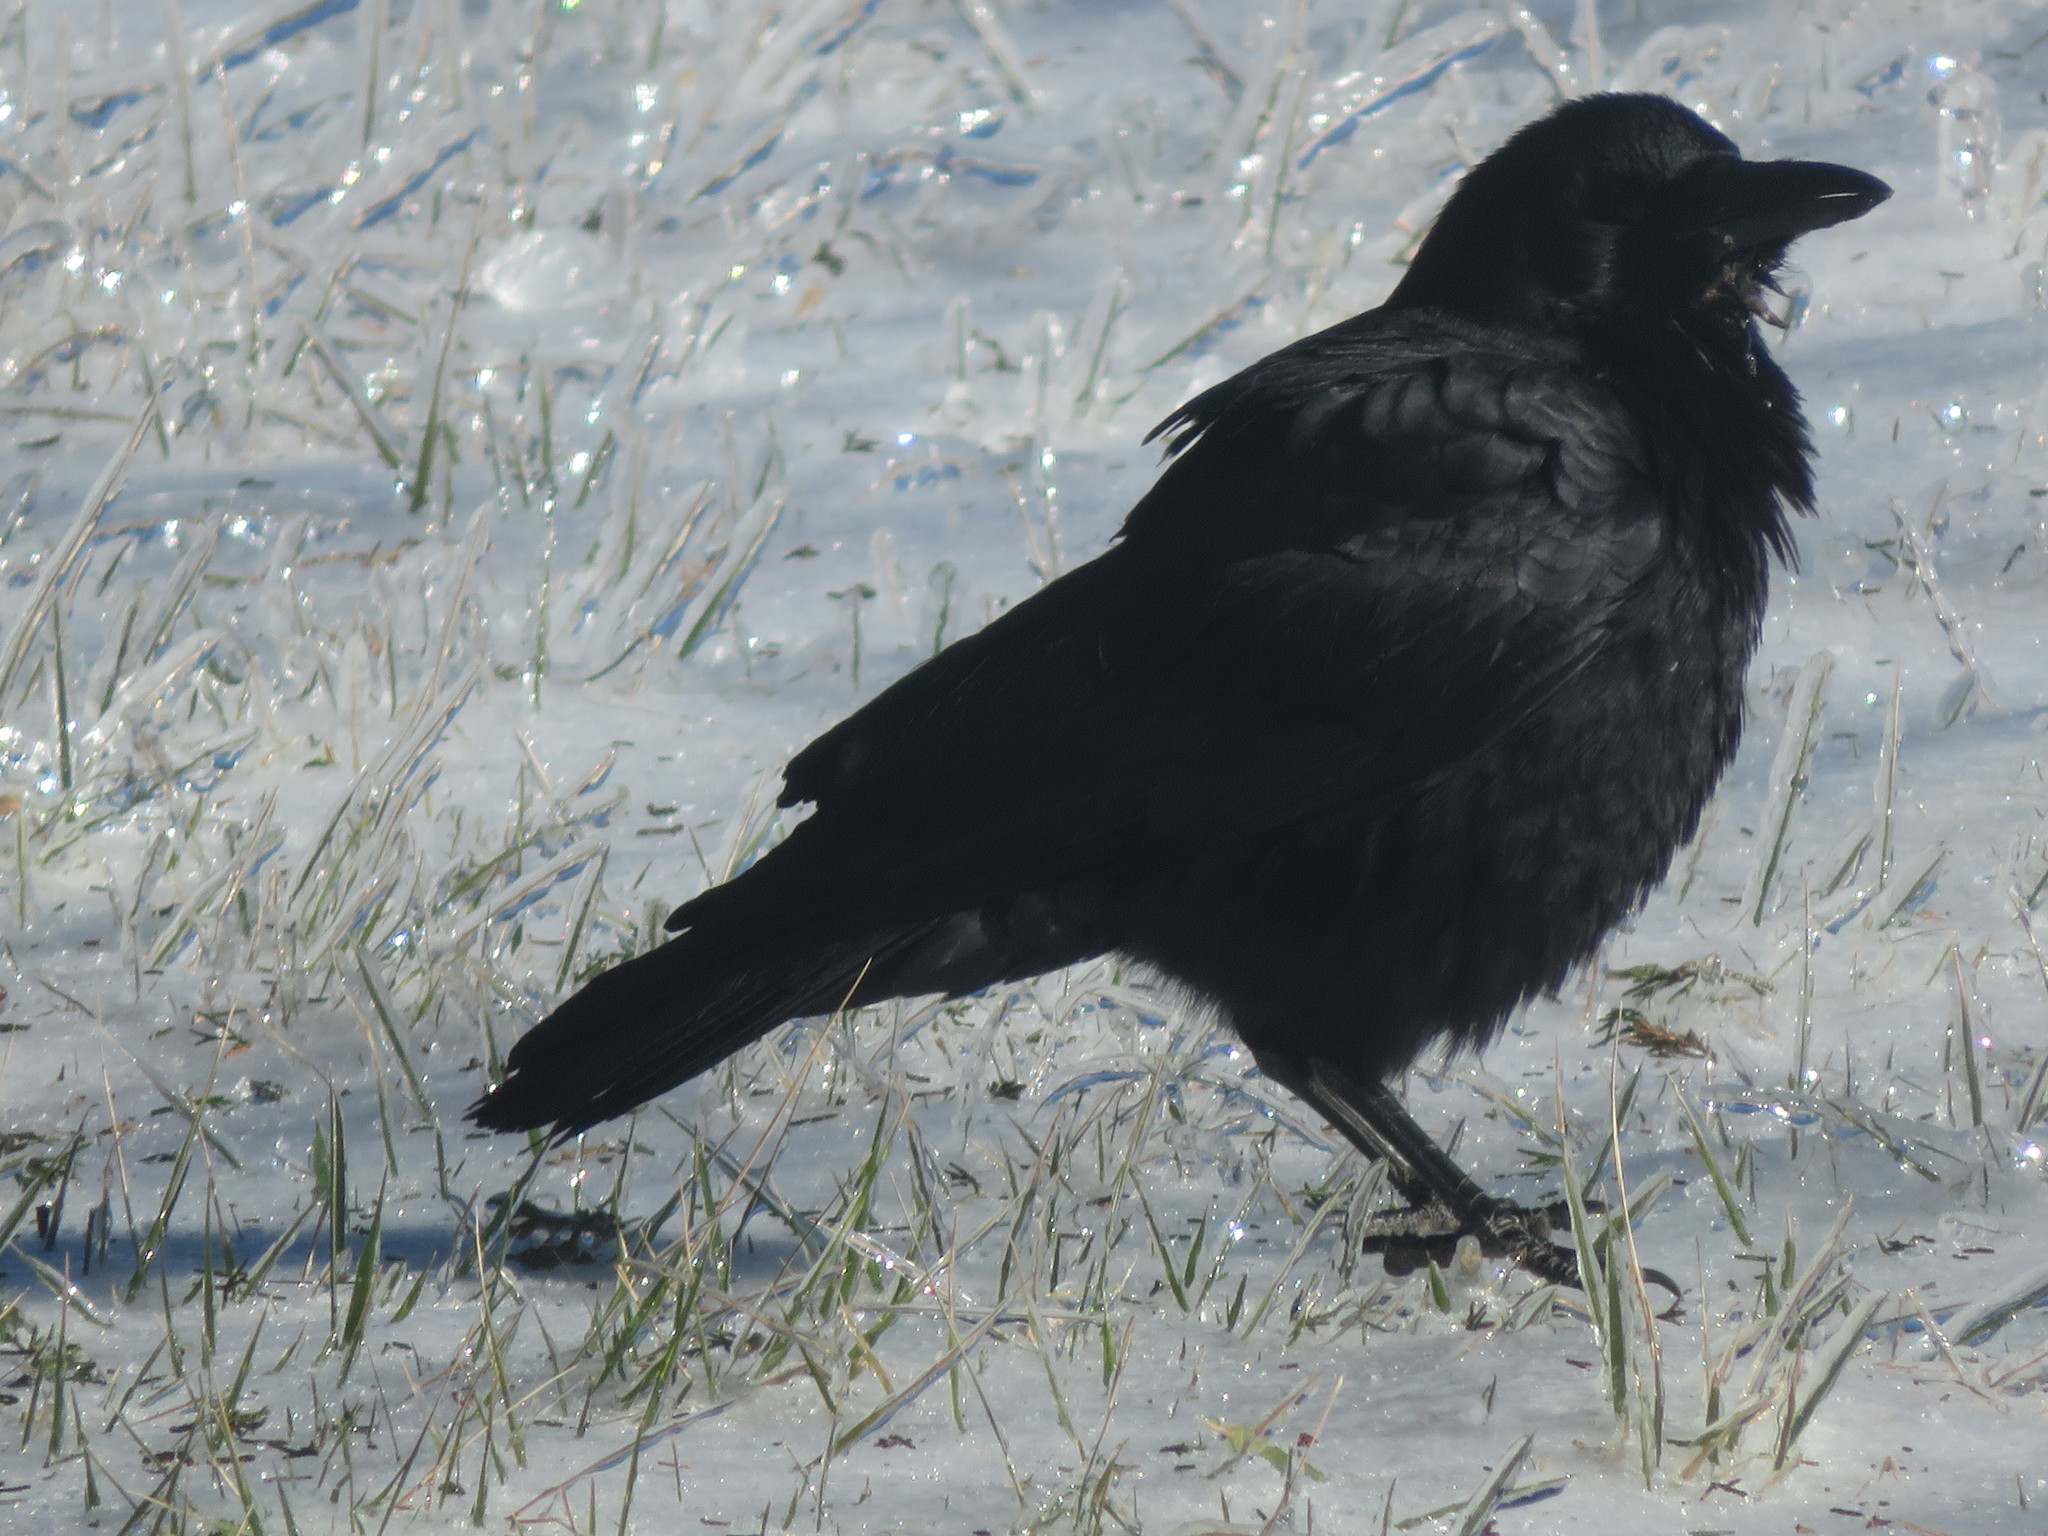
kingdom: Animalia
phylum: Chordata
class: Aves
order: Passeriformes
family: Corvidae
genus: Corvus
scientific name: Corvus brachyrhynchos
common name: American crow
